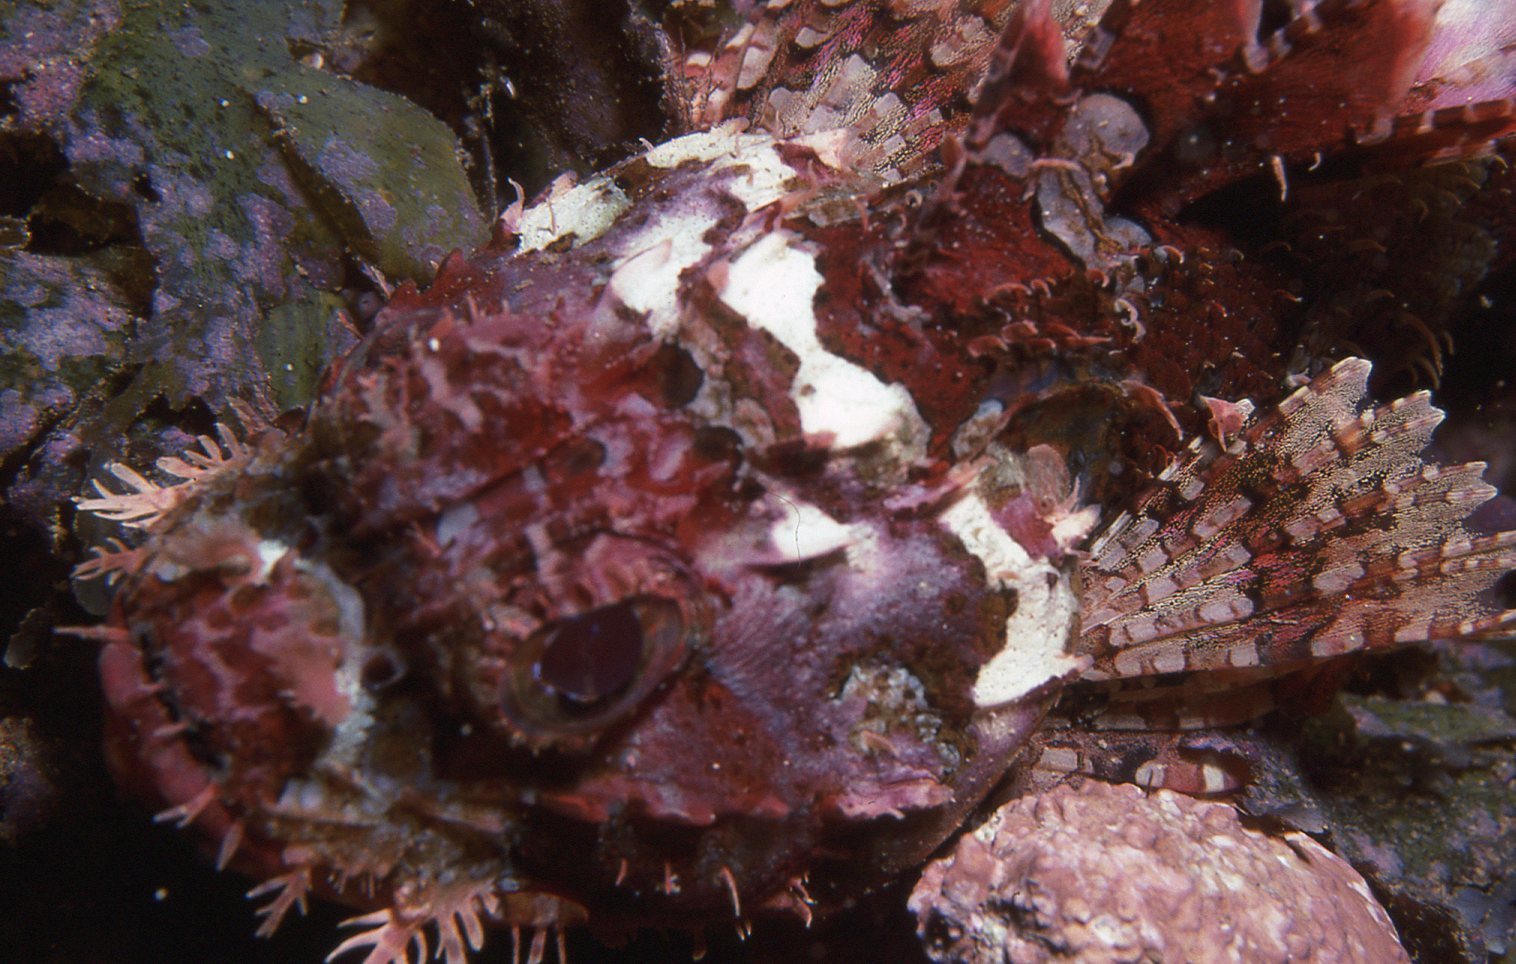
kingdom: Animalia
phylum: Chordata
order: Scorpaeniformes
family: Scorpaenidae
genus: Scorpaena
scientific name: Scorpaena papillosa
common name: Chained scorpionfish
